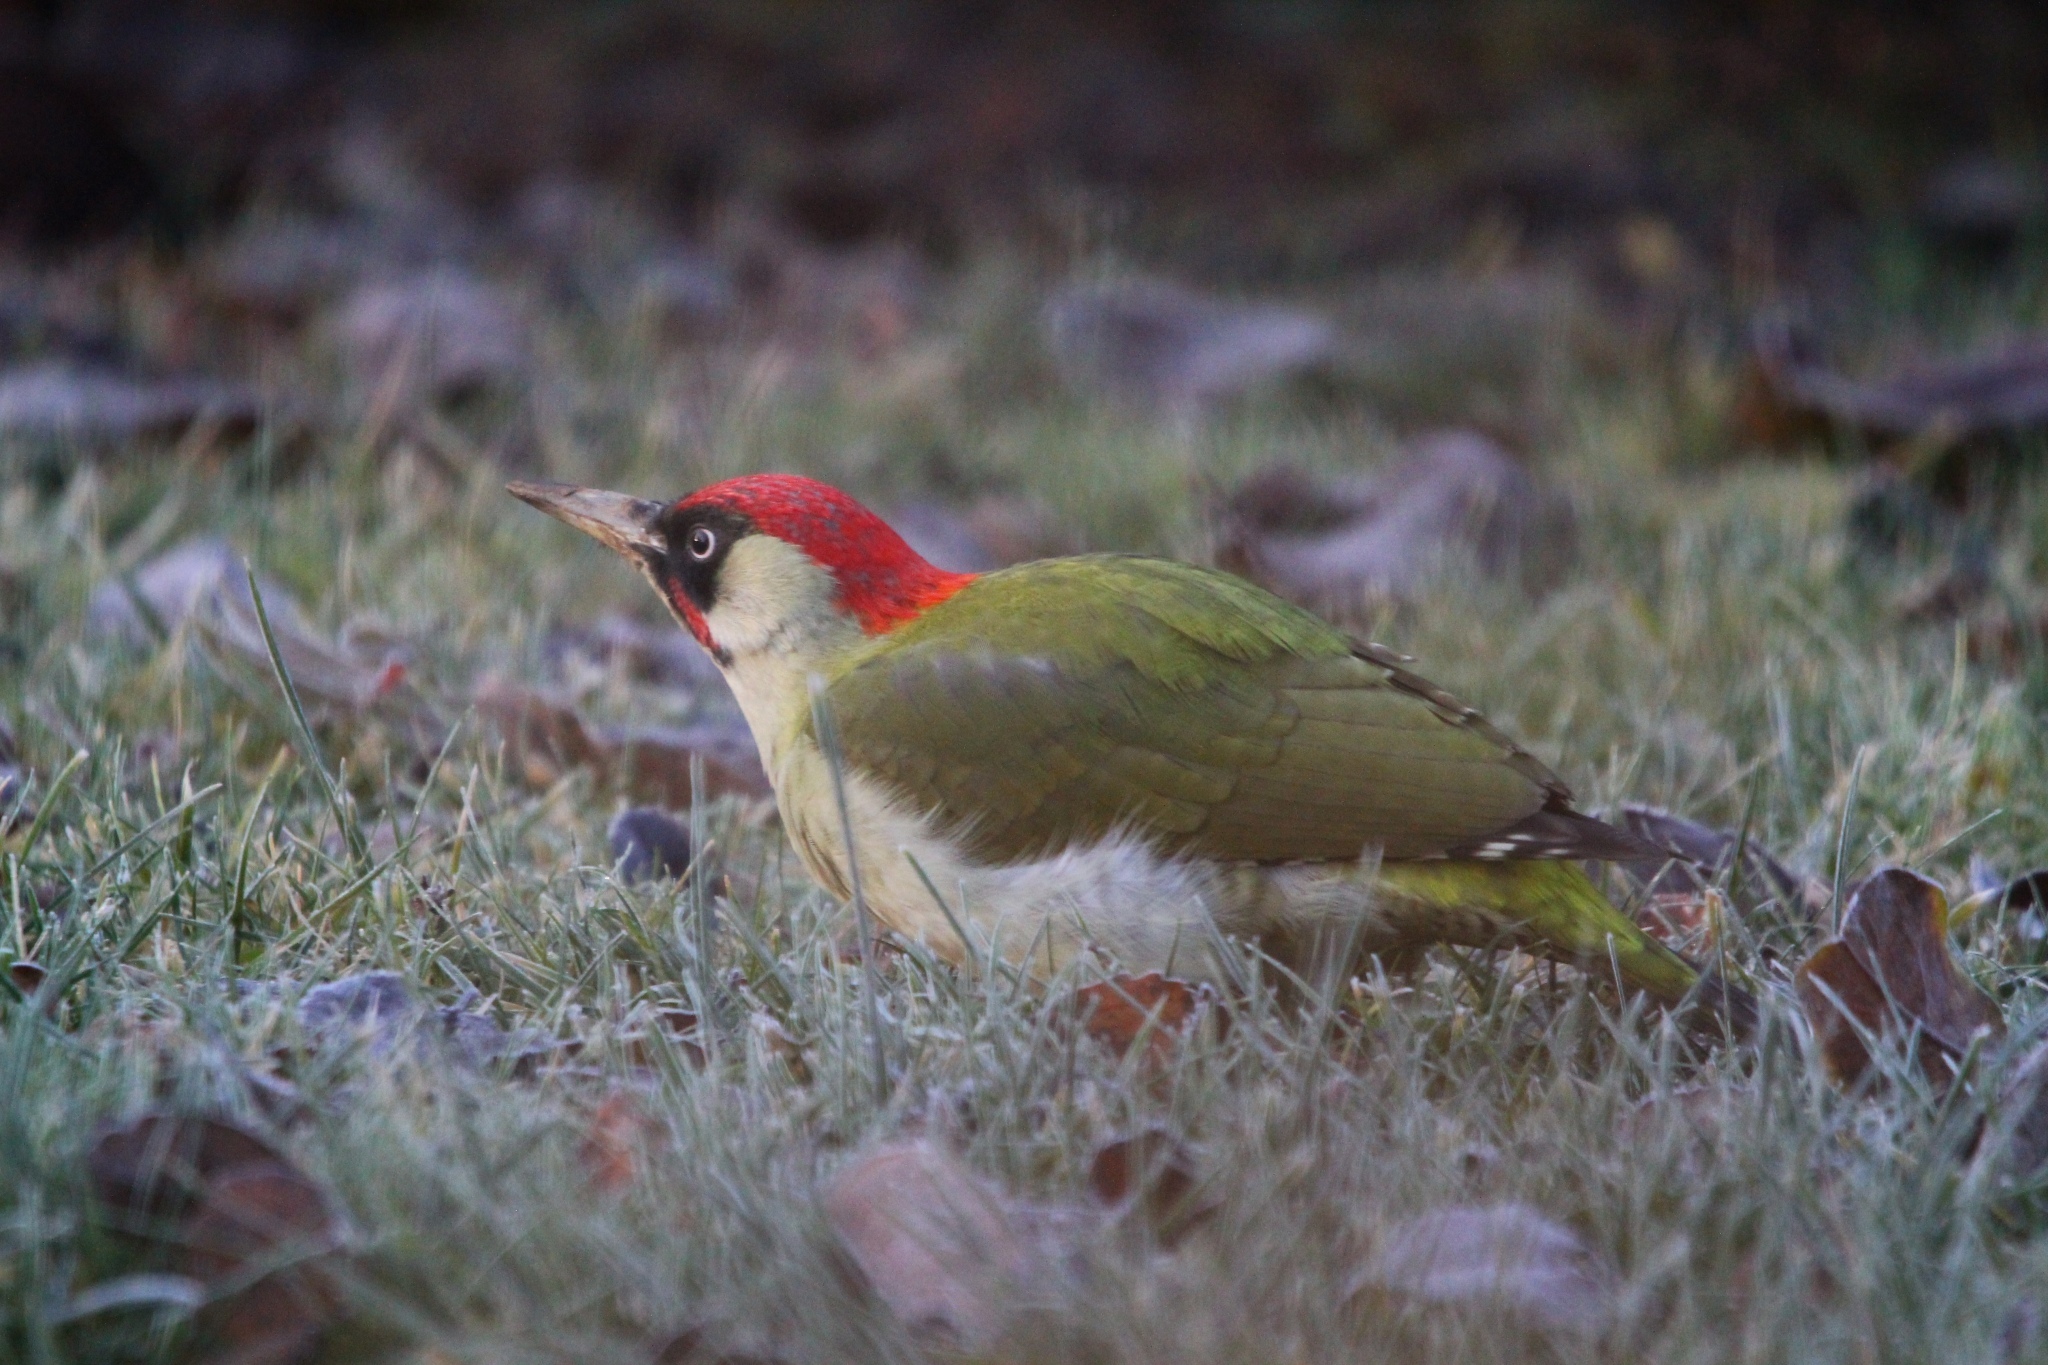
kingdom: Animalia
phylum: Chordata
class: Aves
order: Piciformes
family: Picidae
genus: Picus
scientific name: Picus viridis
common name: European green woodpecker
